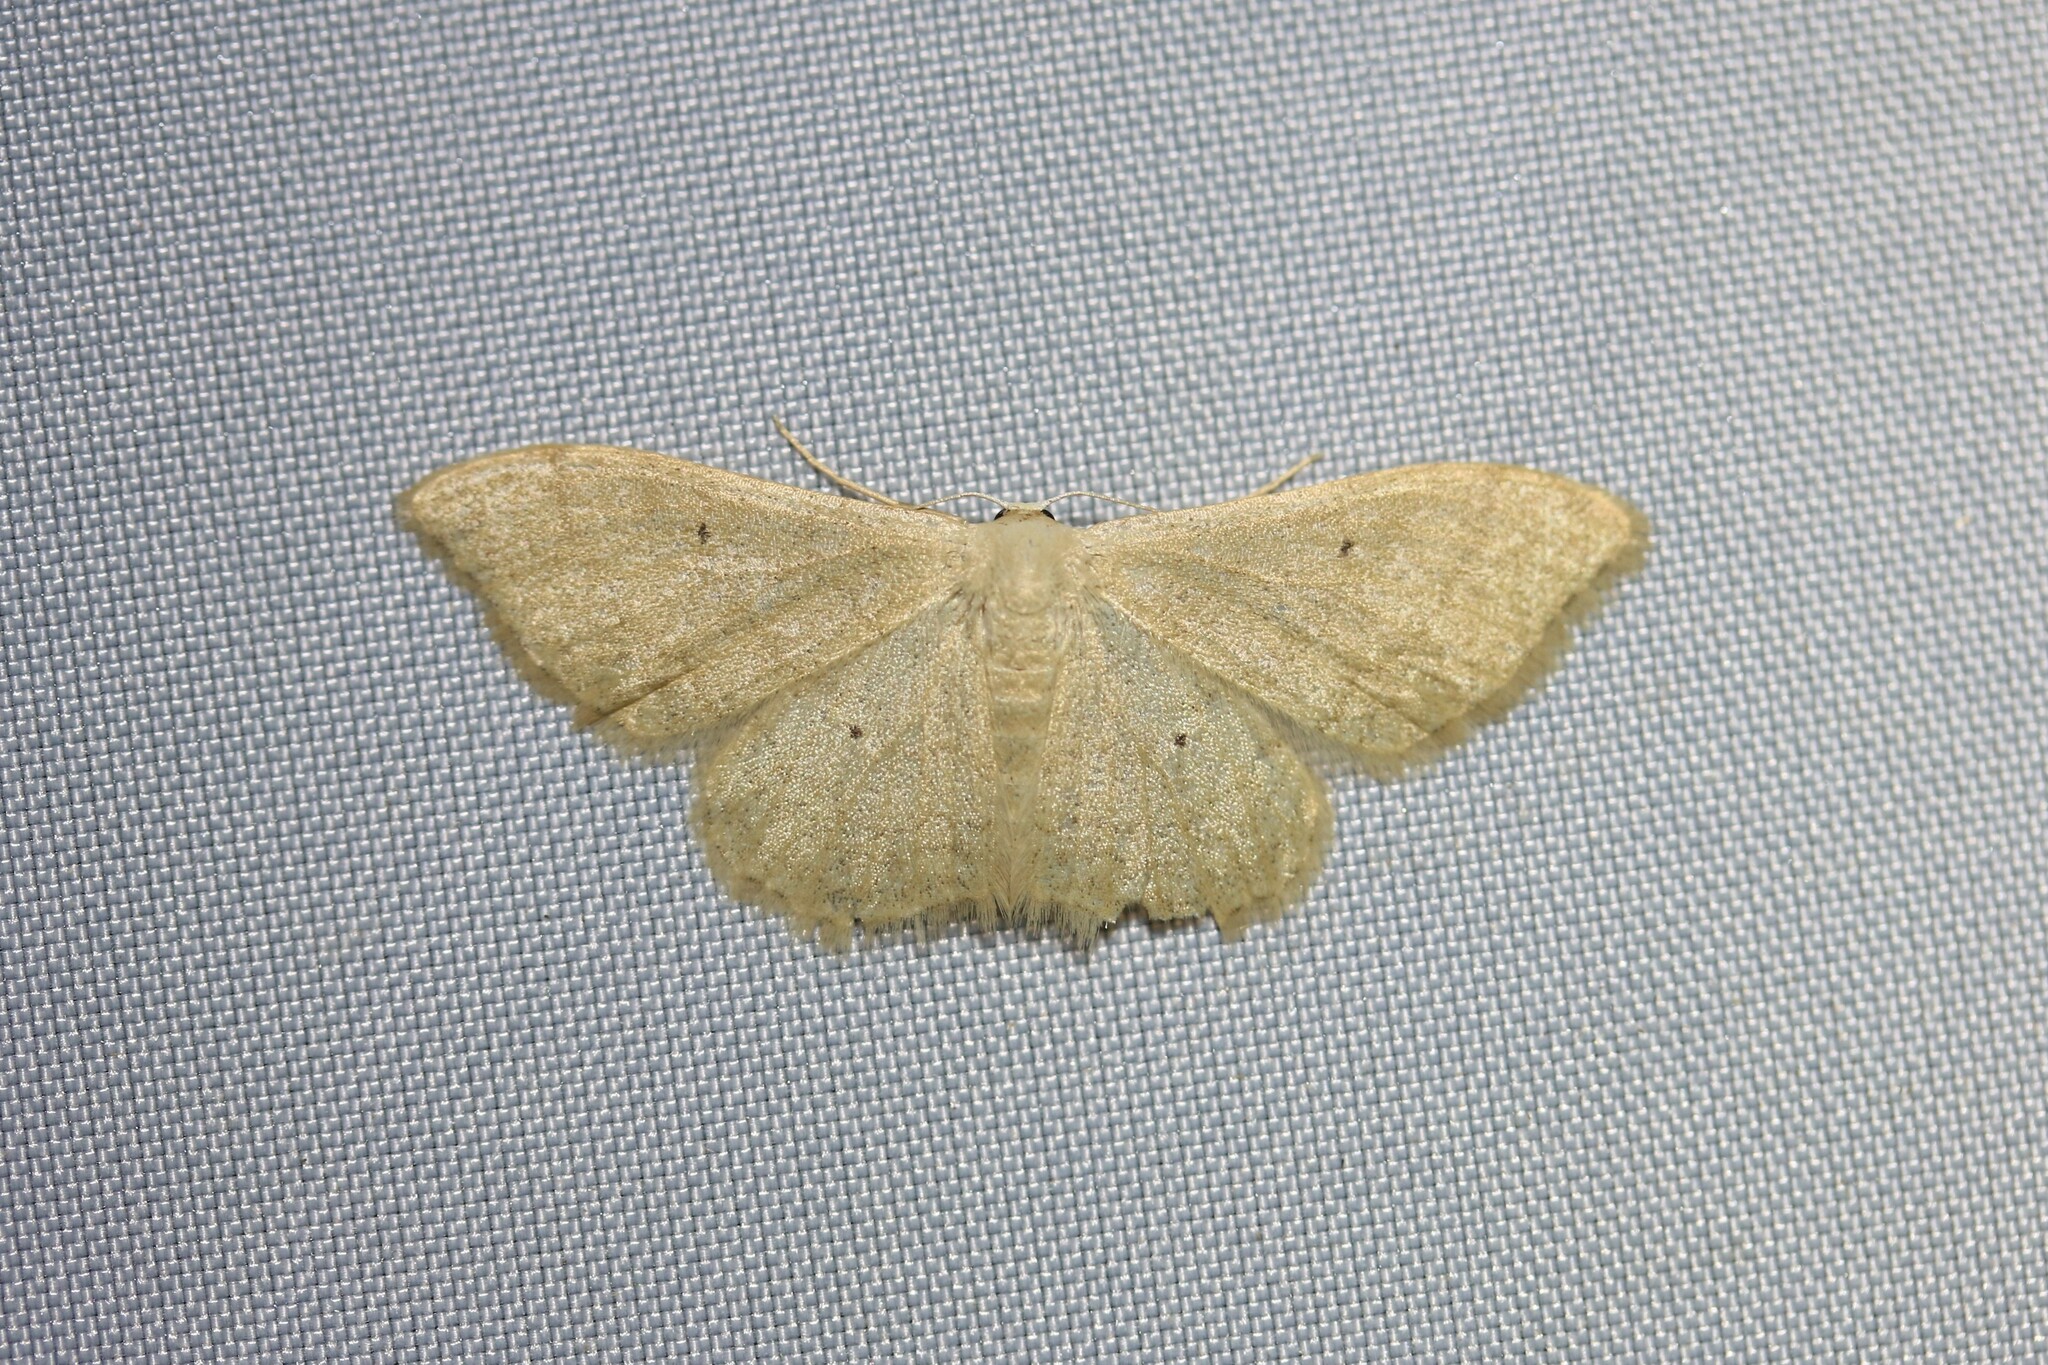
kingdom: Animalia
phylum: Arthropoda
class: Insecta
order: Lepidoptera
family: Geometridae
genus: Idaea
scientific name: Idaea straminata
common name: Plain wave
